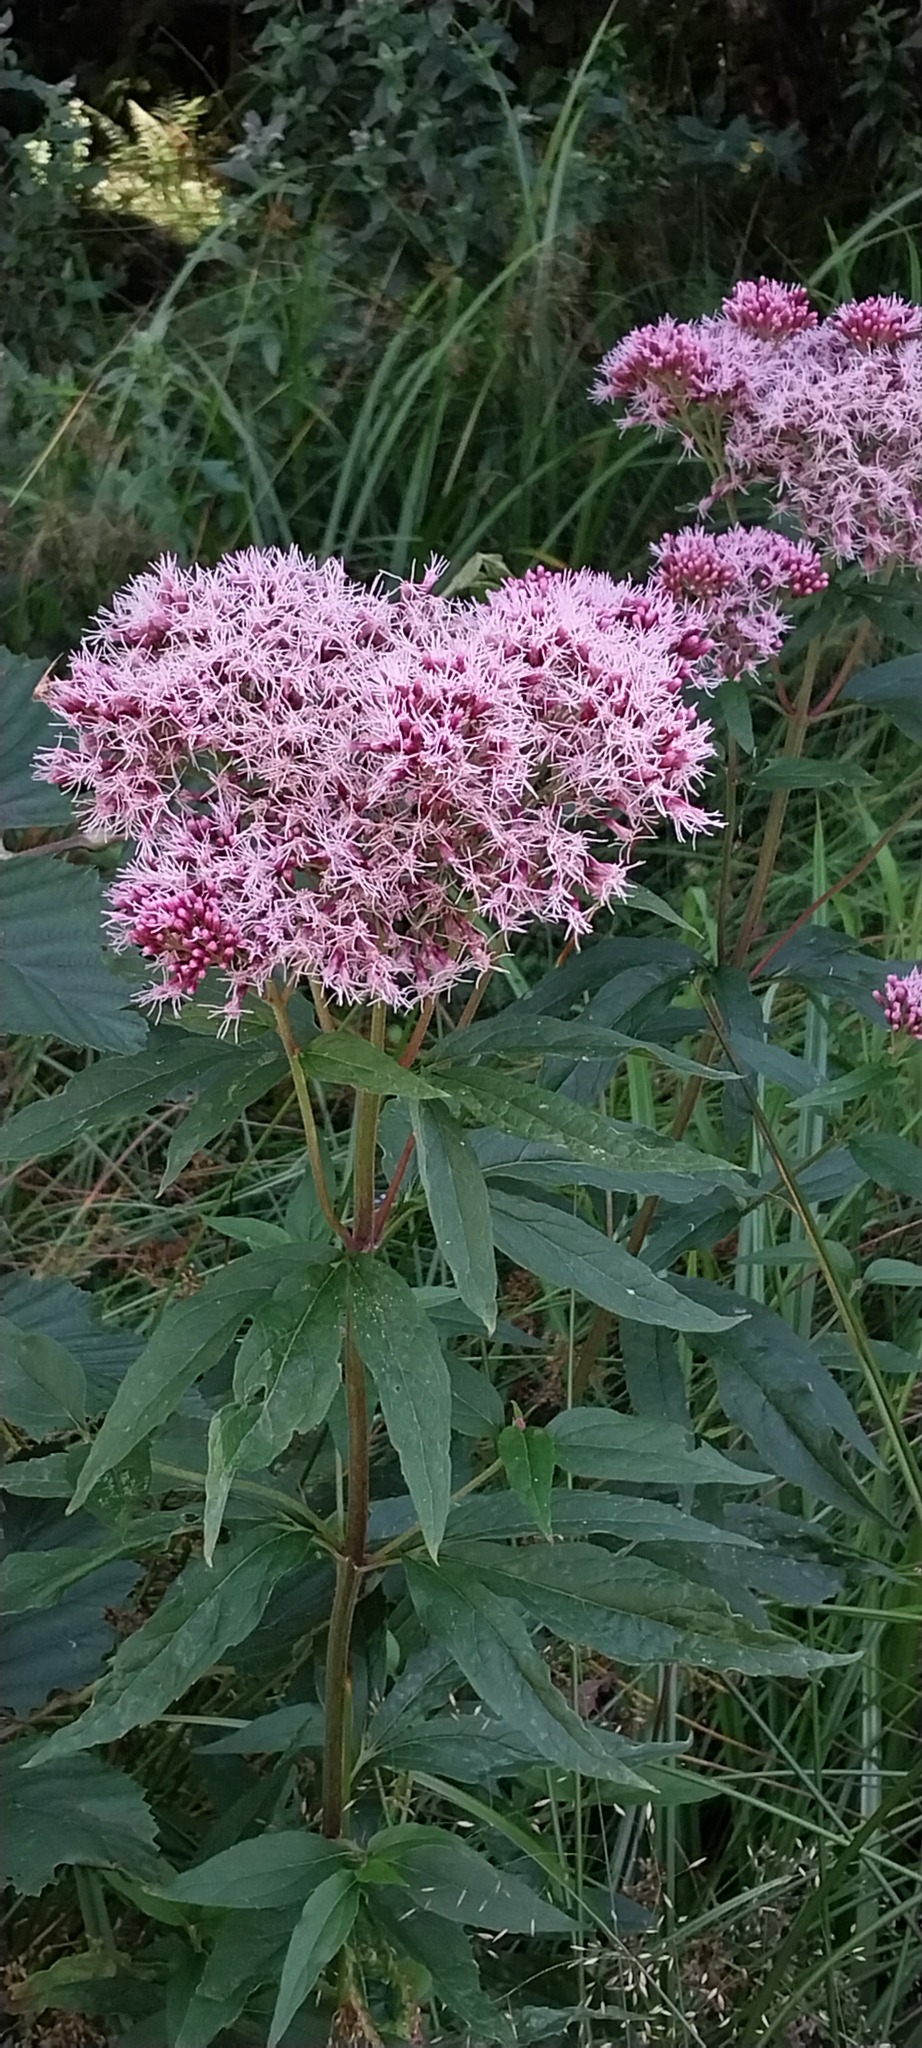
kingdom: Plantae
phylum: Tracheophyta
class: Magnoliopsida
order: Asterales
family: Asteraceae
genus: Eupatorium
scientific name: Eupatorium cannabinum
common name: Hemp-agrimony
